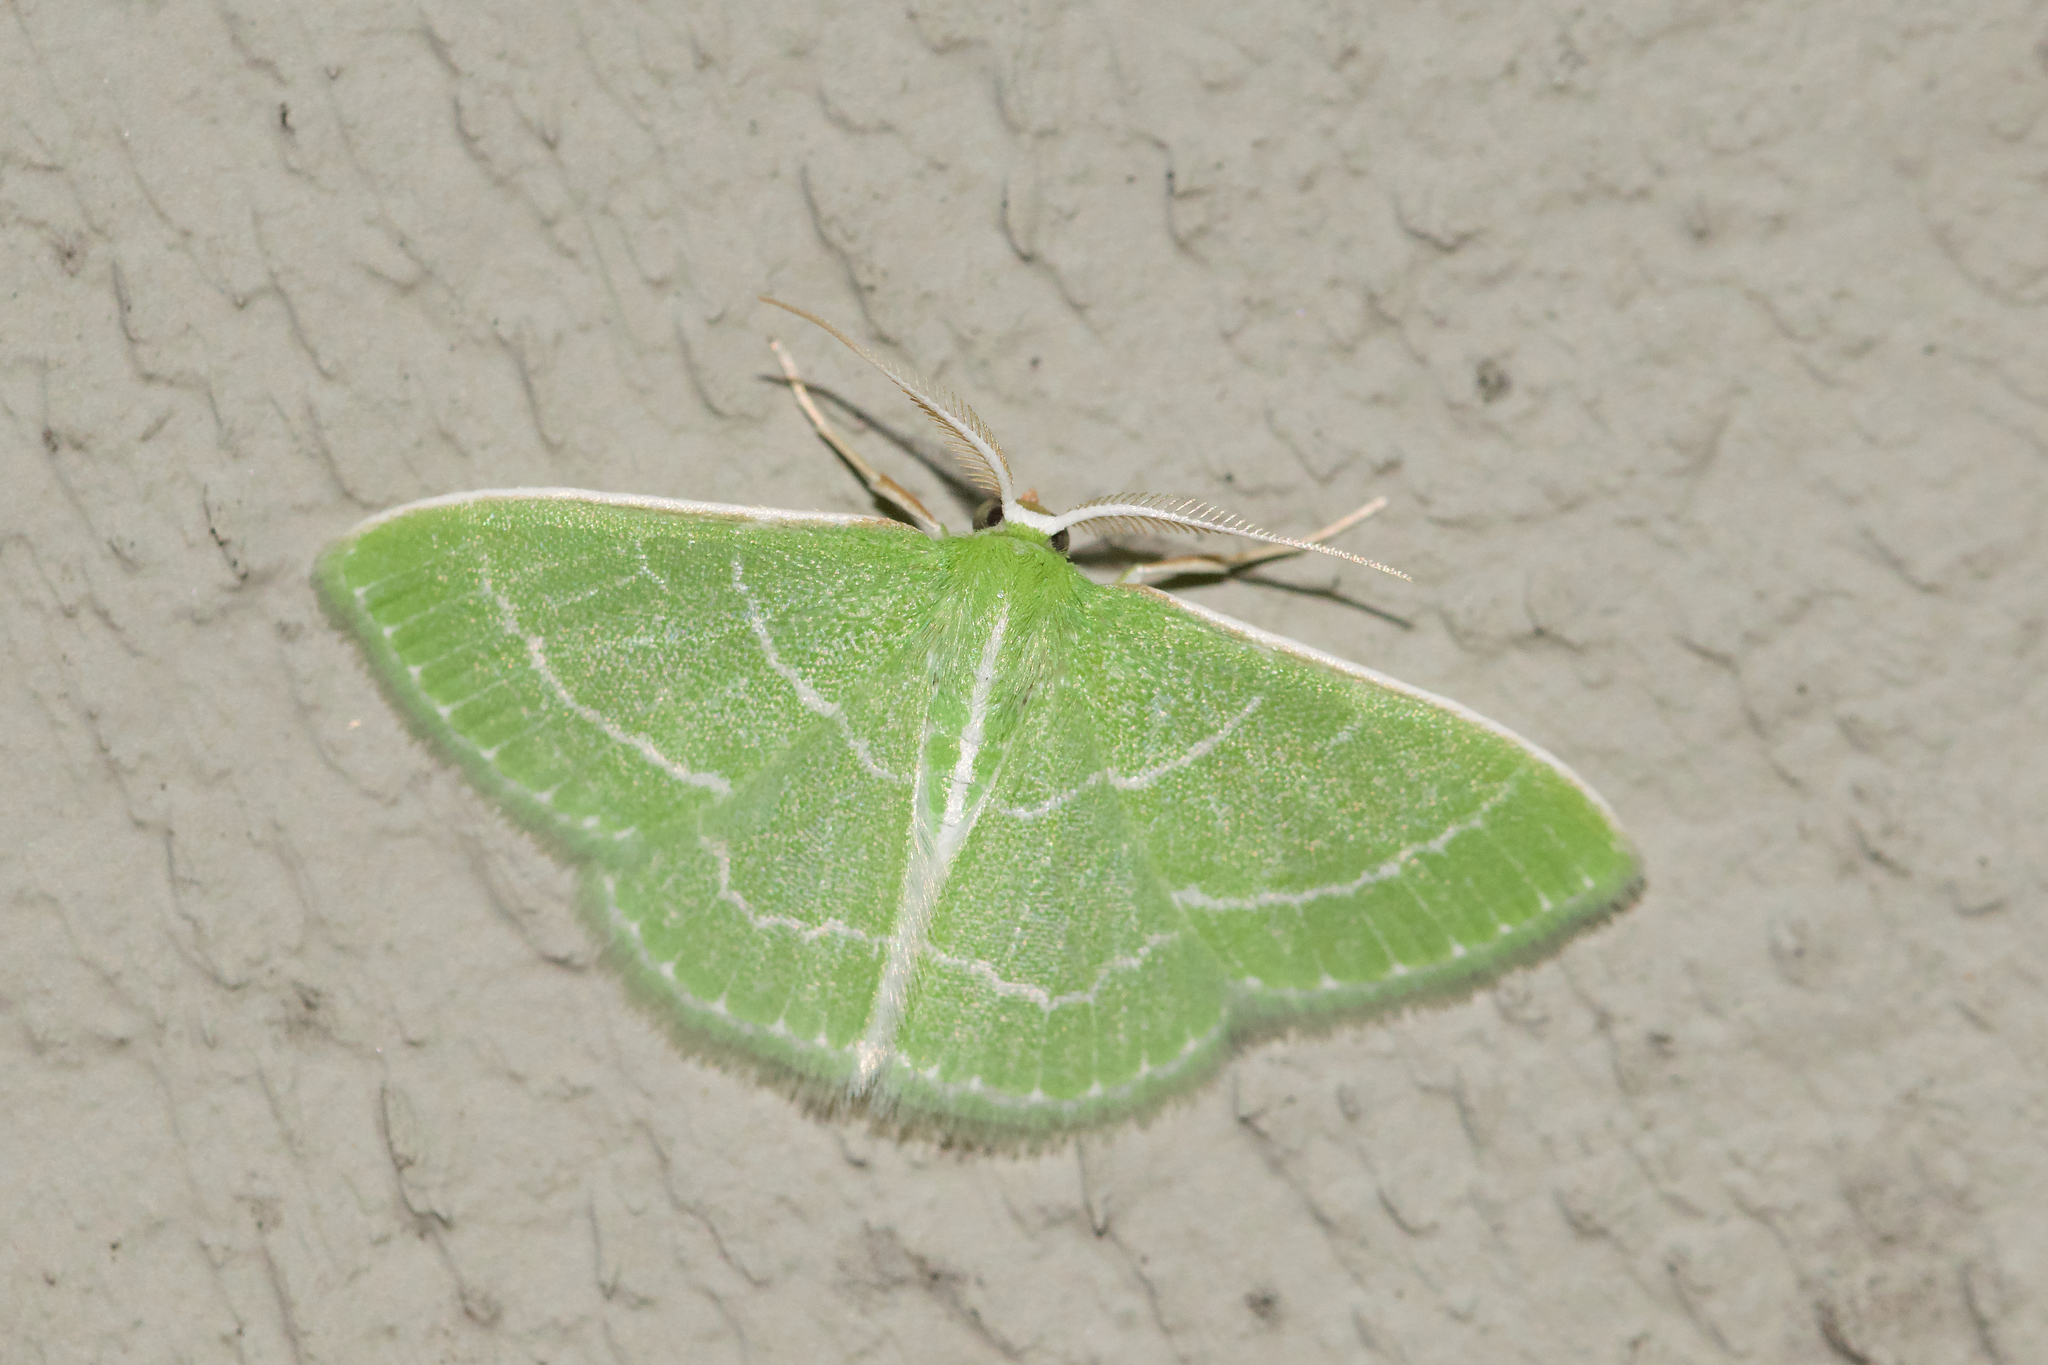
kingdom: Animalia
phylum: Arthropoda
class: Insecta
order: Lepidoptera
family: Geometridae
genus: Synchlora
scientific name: Synchlora aerata
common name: Wavy-lined emerald
